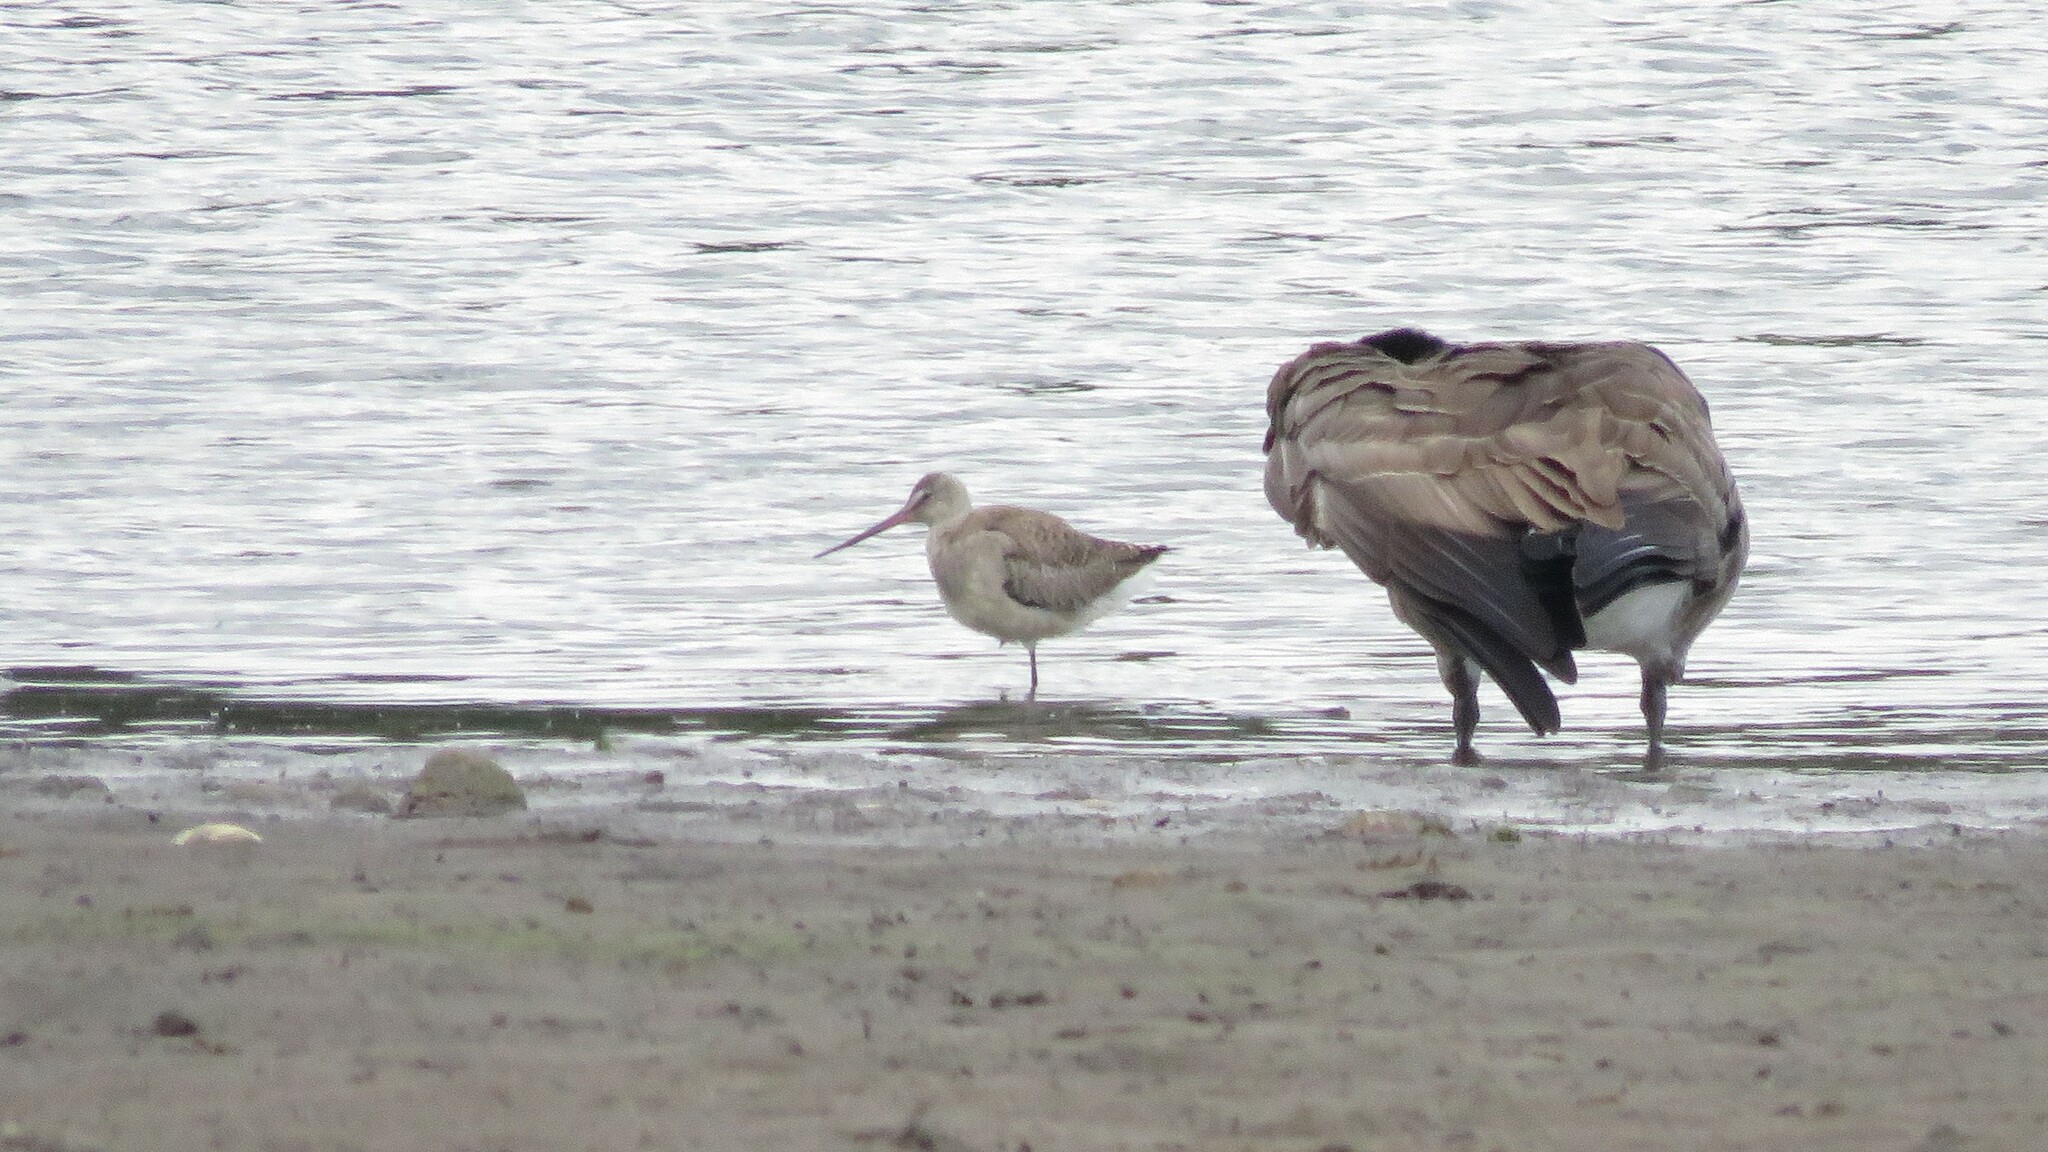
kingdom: Animalia
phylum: Chordata
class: Aves
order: Charadriiformes
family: Scolopacidae
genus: Limosa
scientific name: Limosa haemastica
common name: Hudsonian godwit
